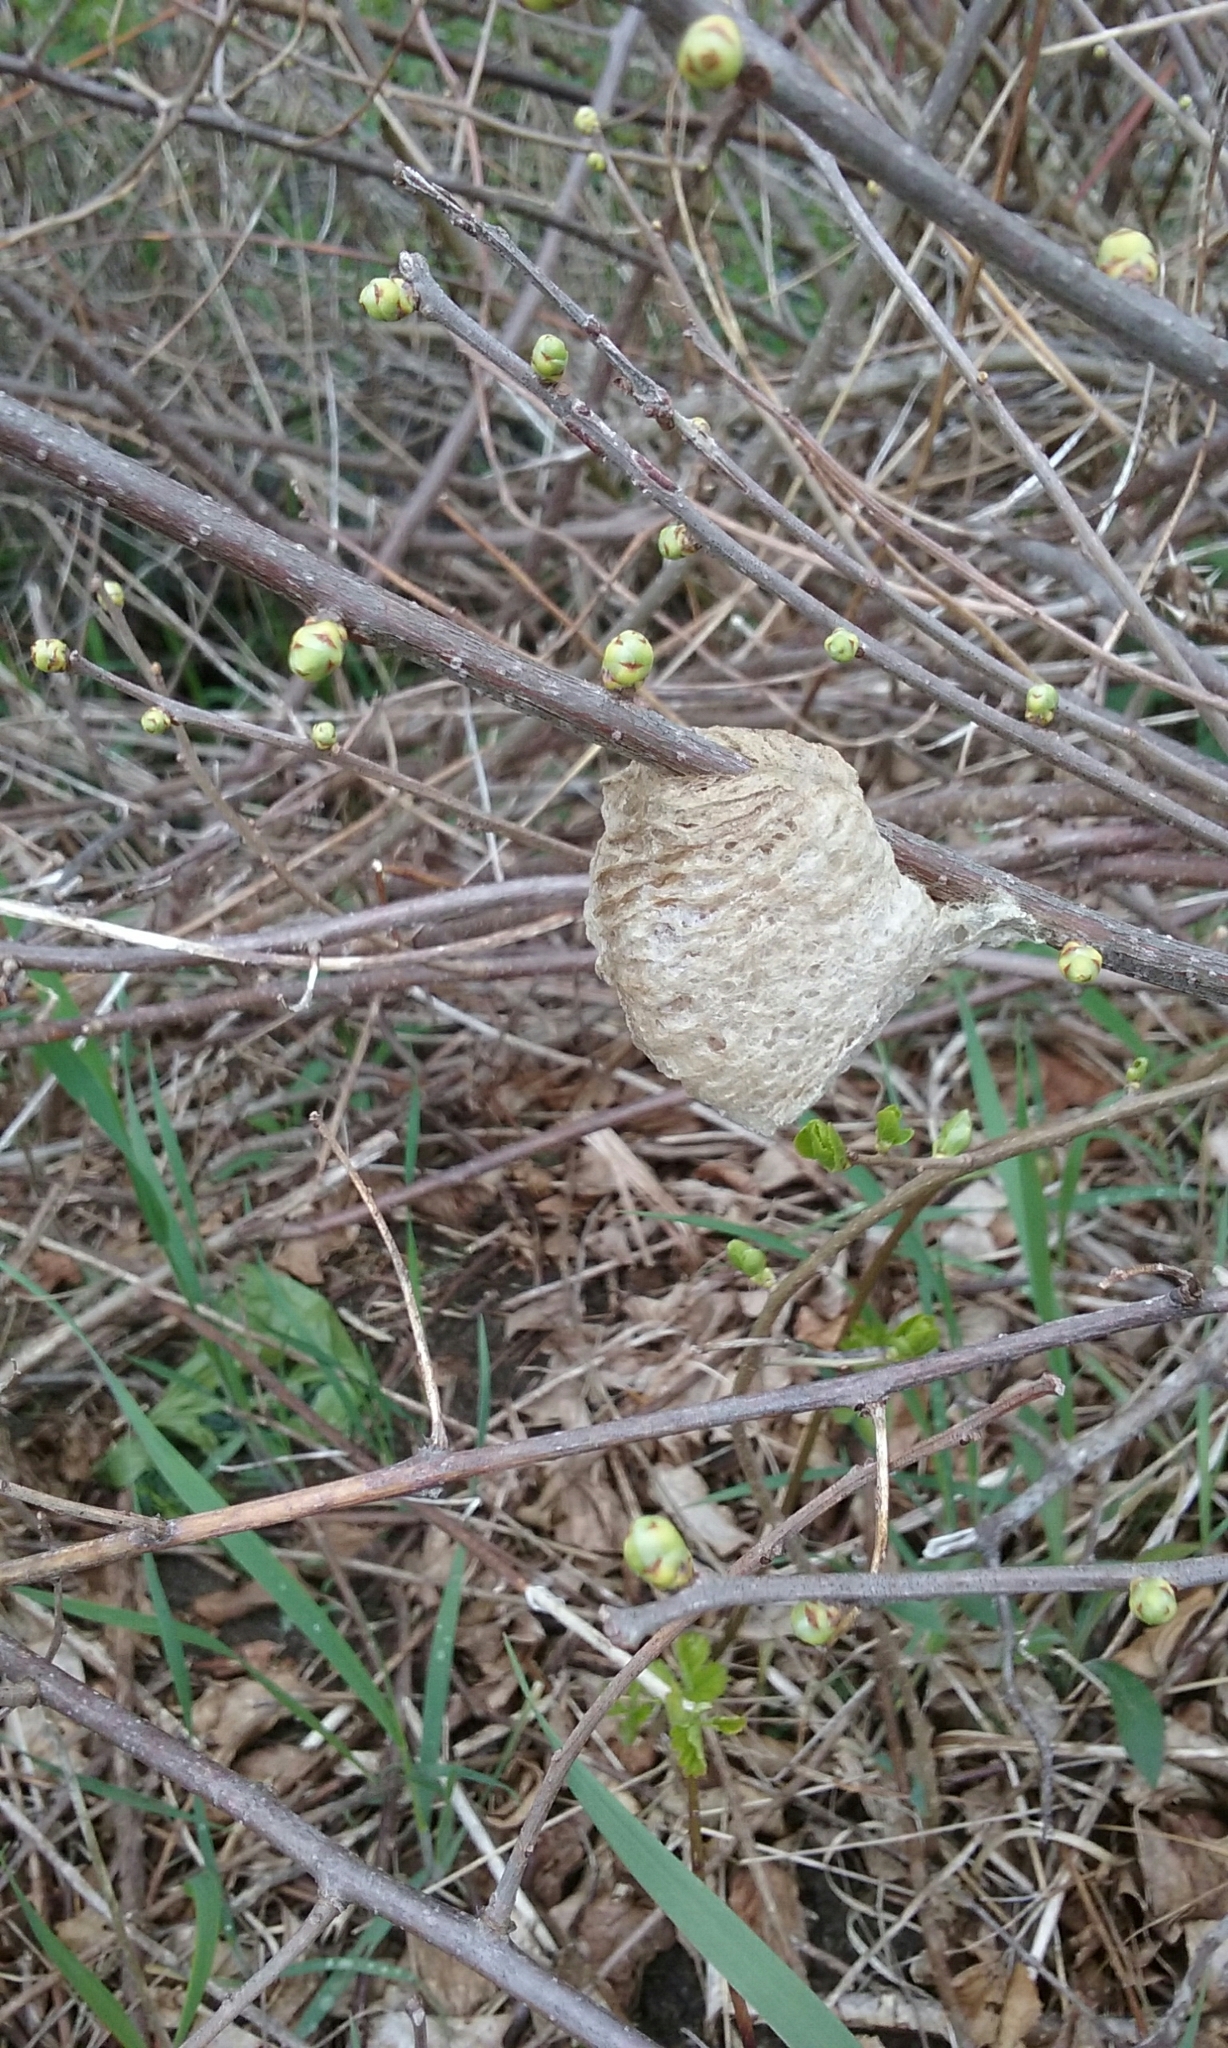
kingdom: Animalia
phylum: Arthropoda
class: Insecta
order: Mantodea
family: Mantidae
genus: Tenodera
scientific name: Tenodera sinensis
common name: Chinese mantis
